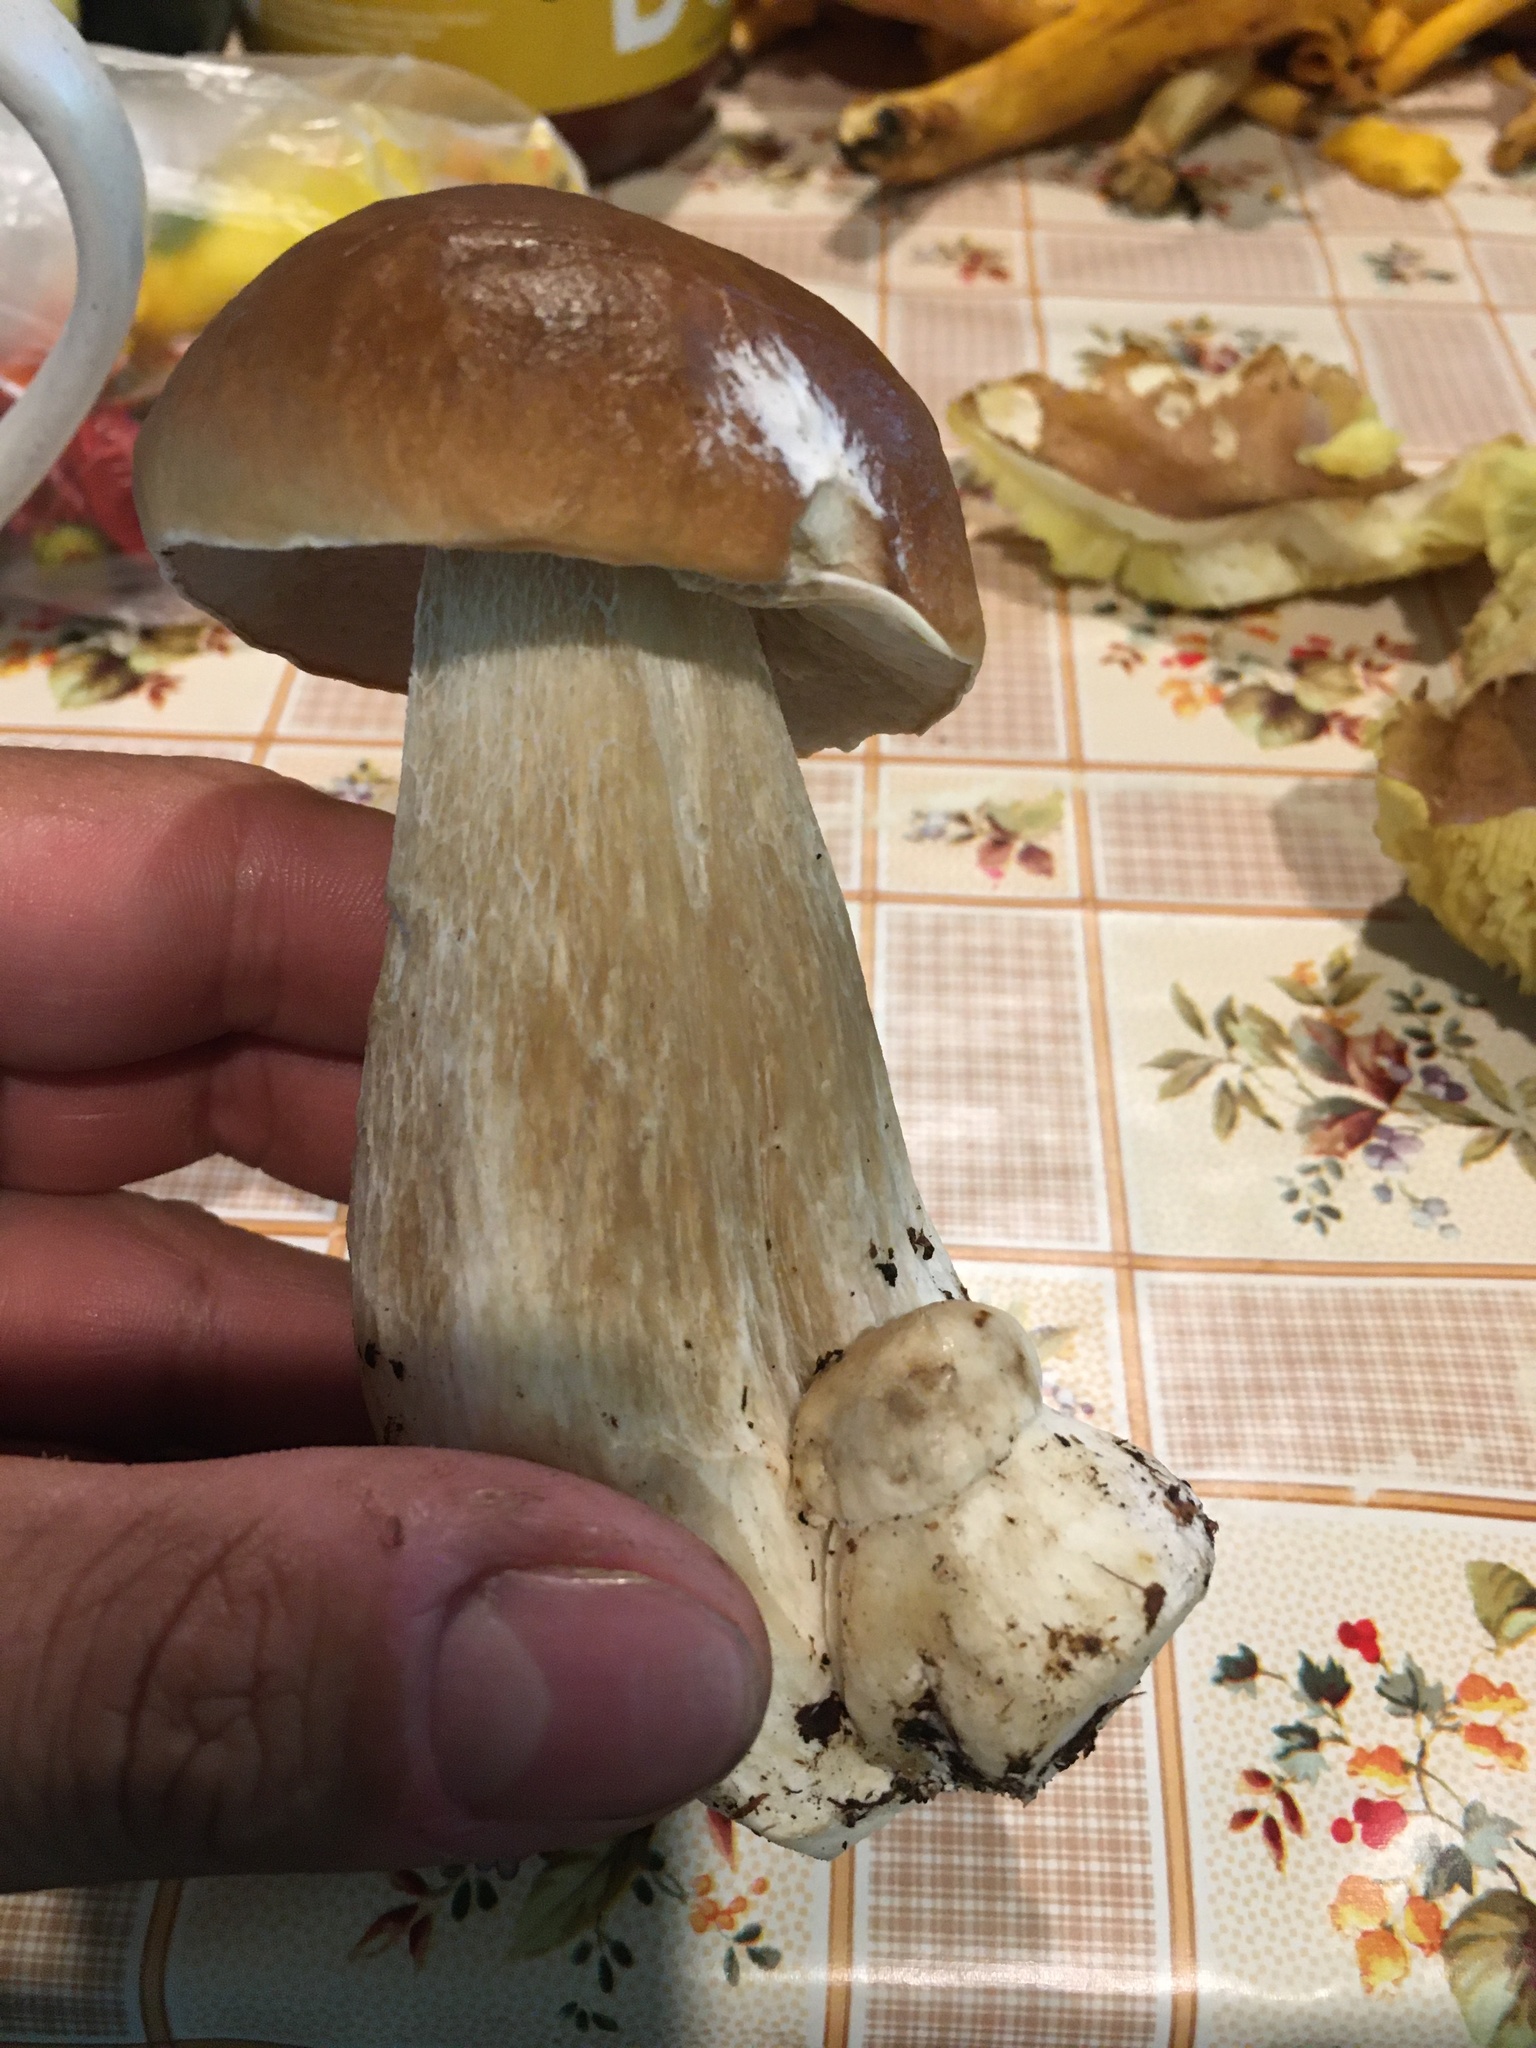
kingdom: Fungi
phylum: Basidiomycota
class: Agaricomycetes
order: Boletales
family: Boletaceae
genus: Boletus
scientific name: Boletus edulis
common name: Cep
